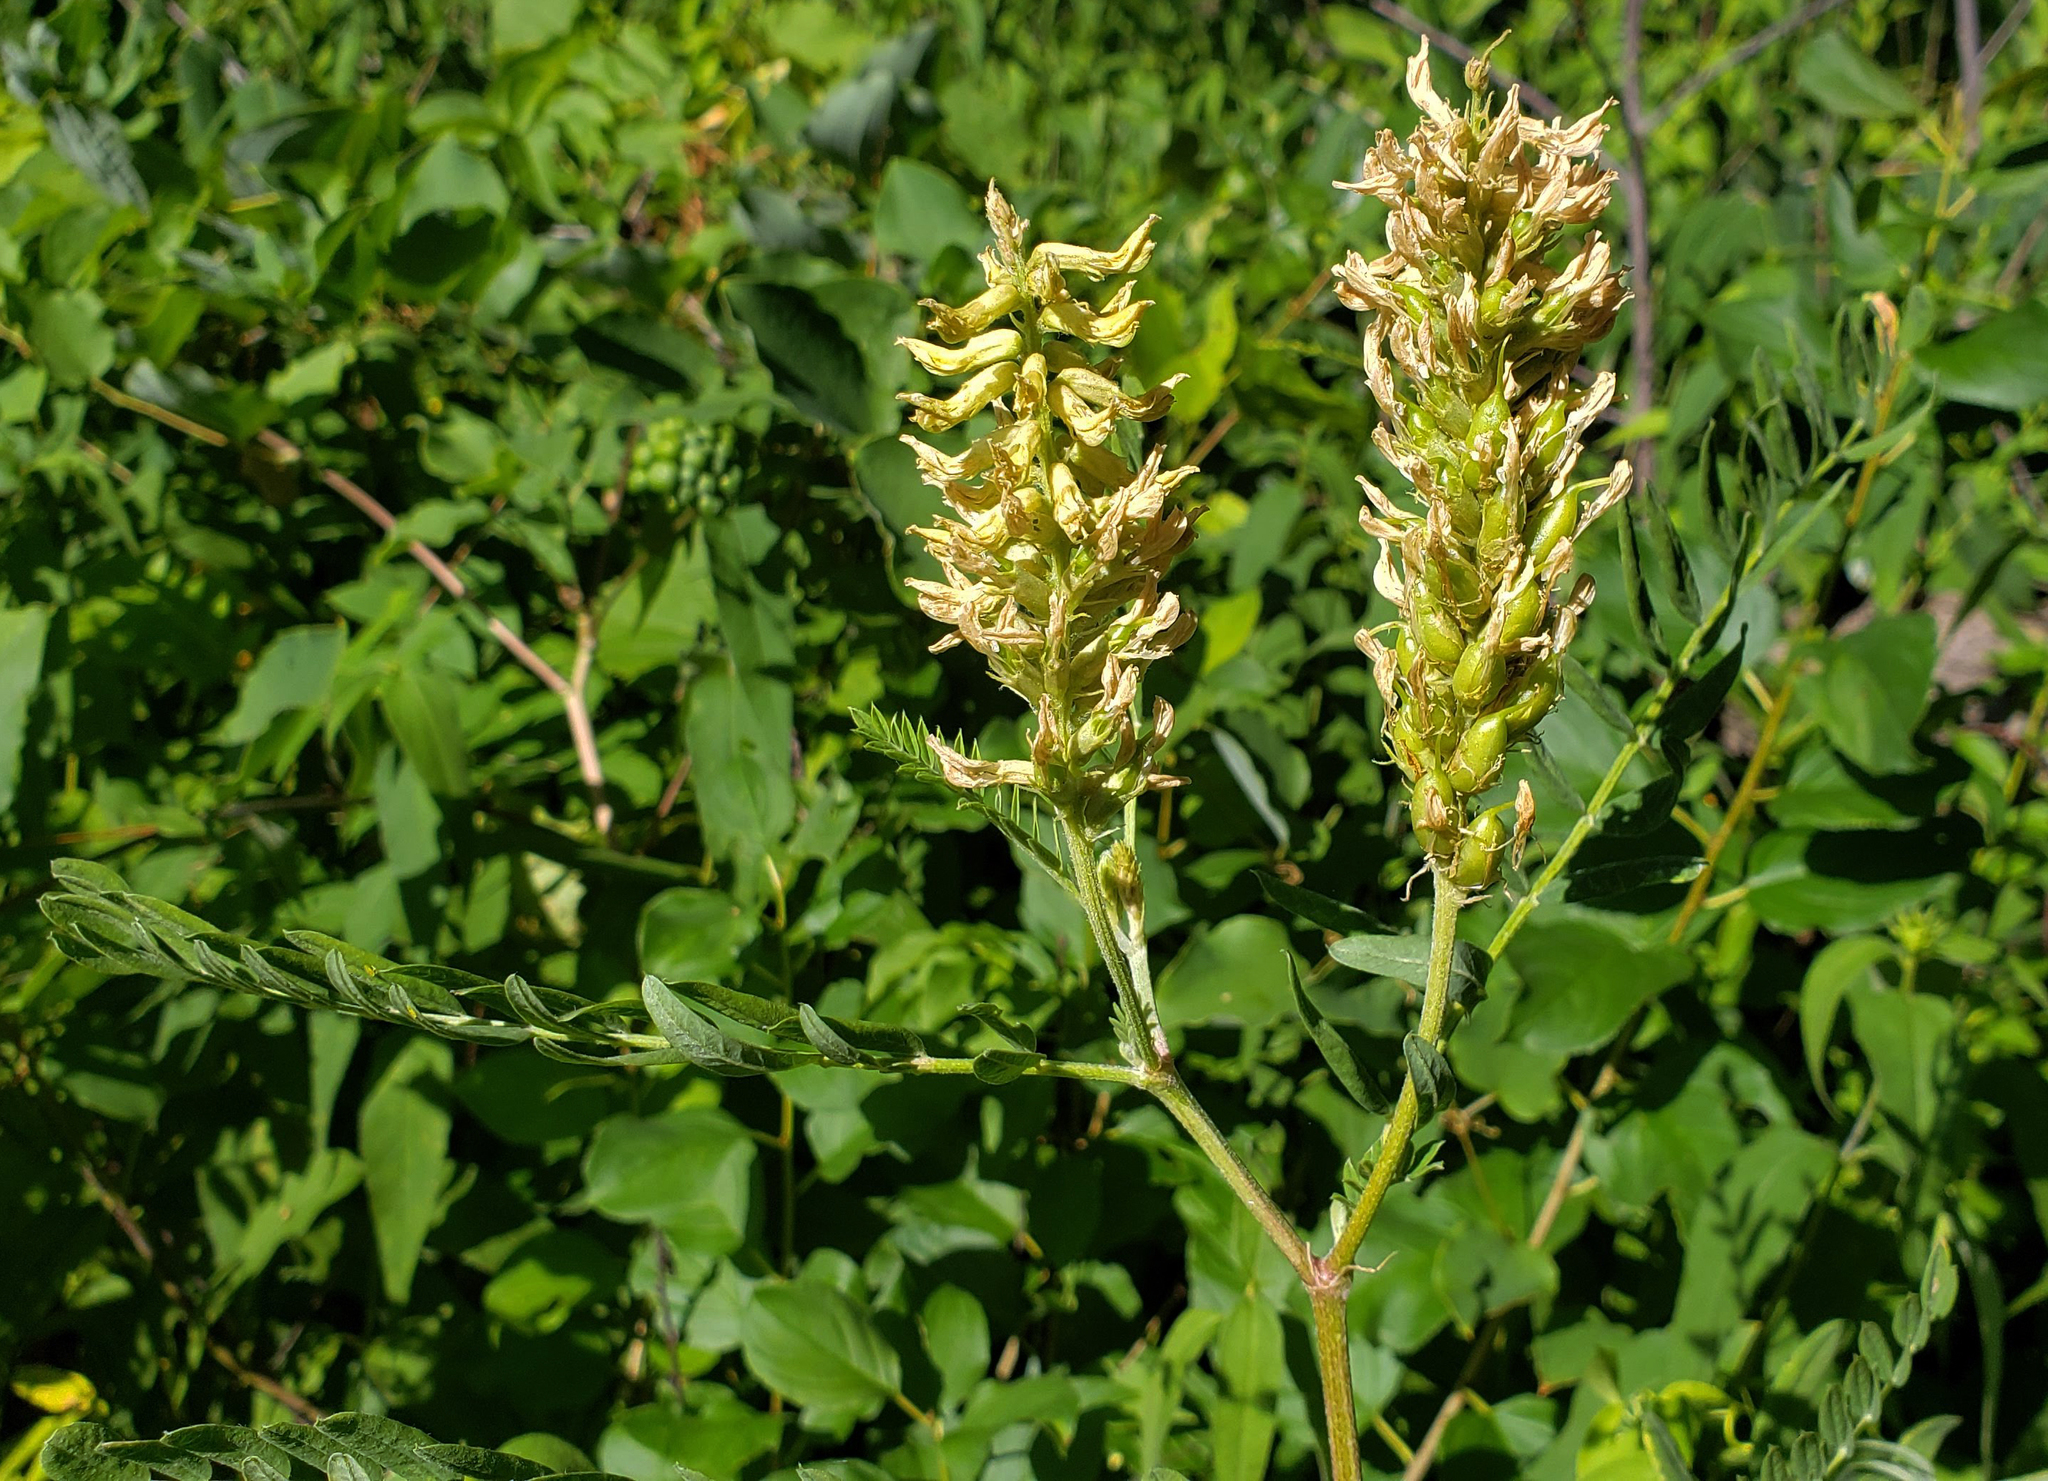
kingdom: Plantae
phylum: Tracheophyta
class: Magnoliopsida
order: Fabales
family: Fabaceae
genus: Astragalus
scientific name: Astragalus canadensis
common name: Canada milk-vetch
